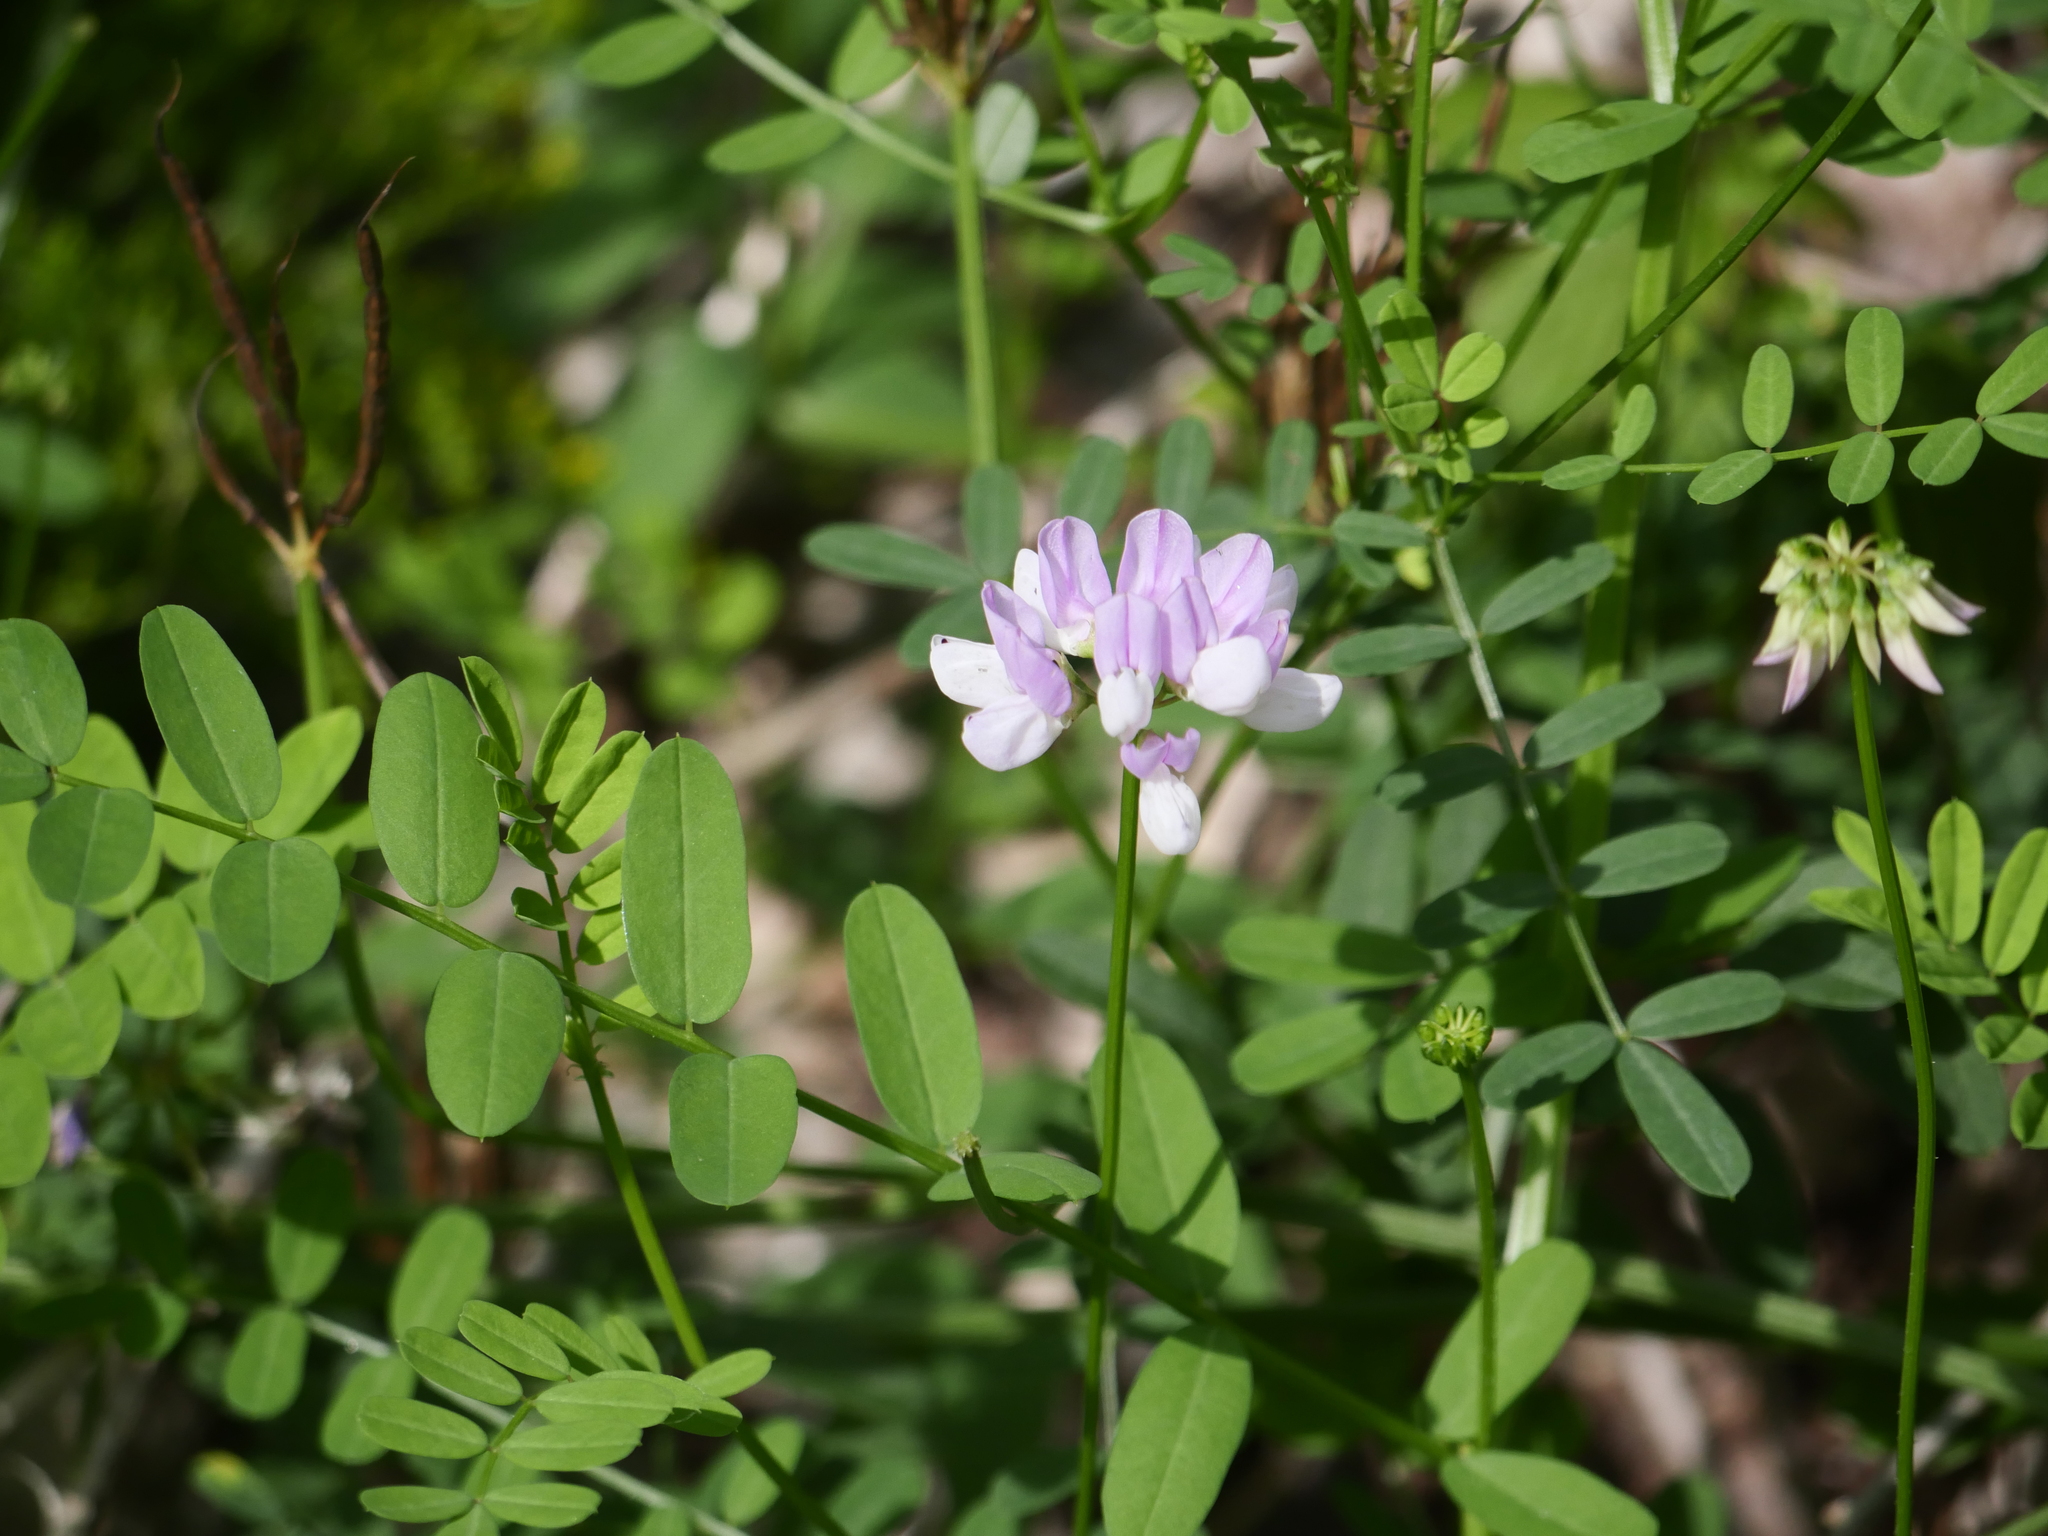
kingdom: Plantae
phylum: Tracheophyta
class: Magnoliopsida
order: Fabales
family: Fabaceae
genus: Coronilla
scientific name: Coronilla varia
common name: Crownvetch
